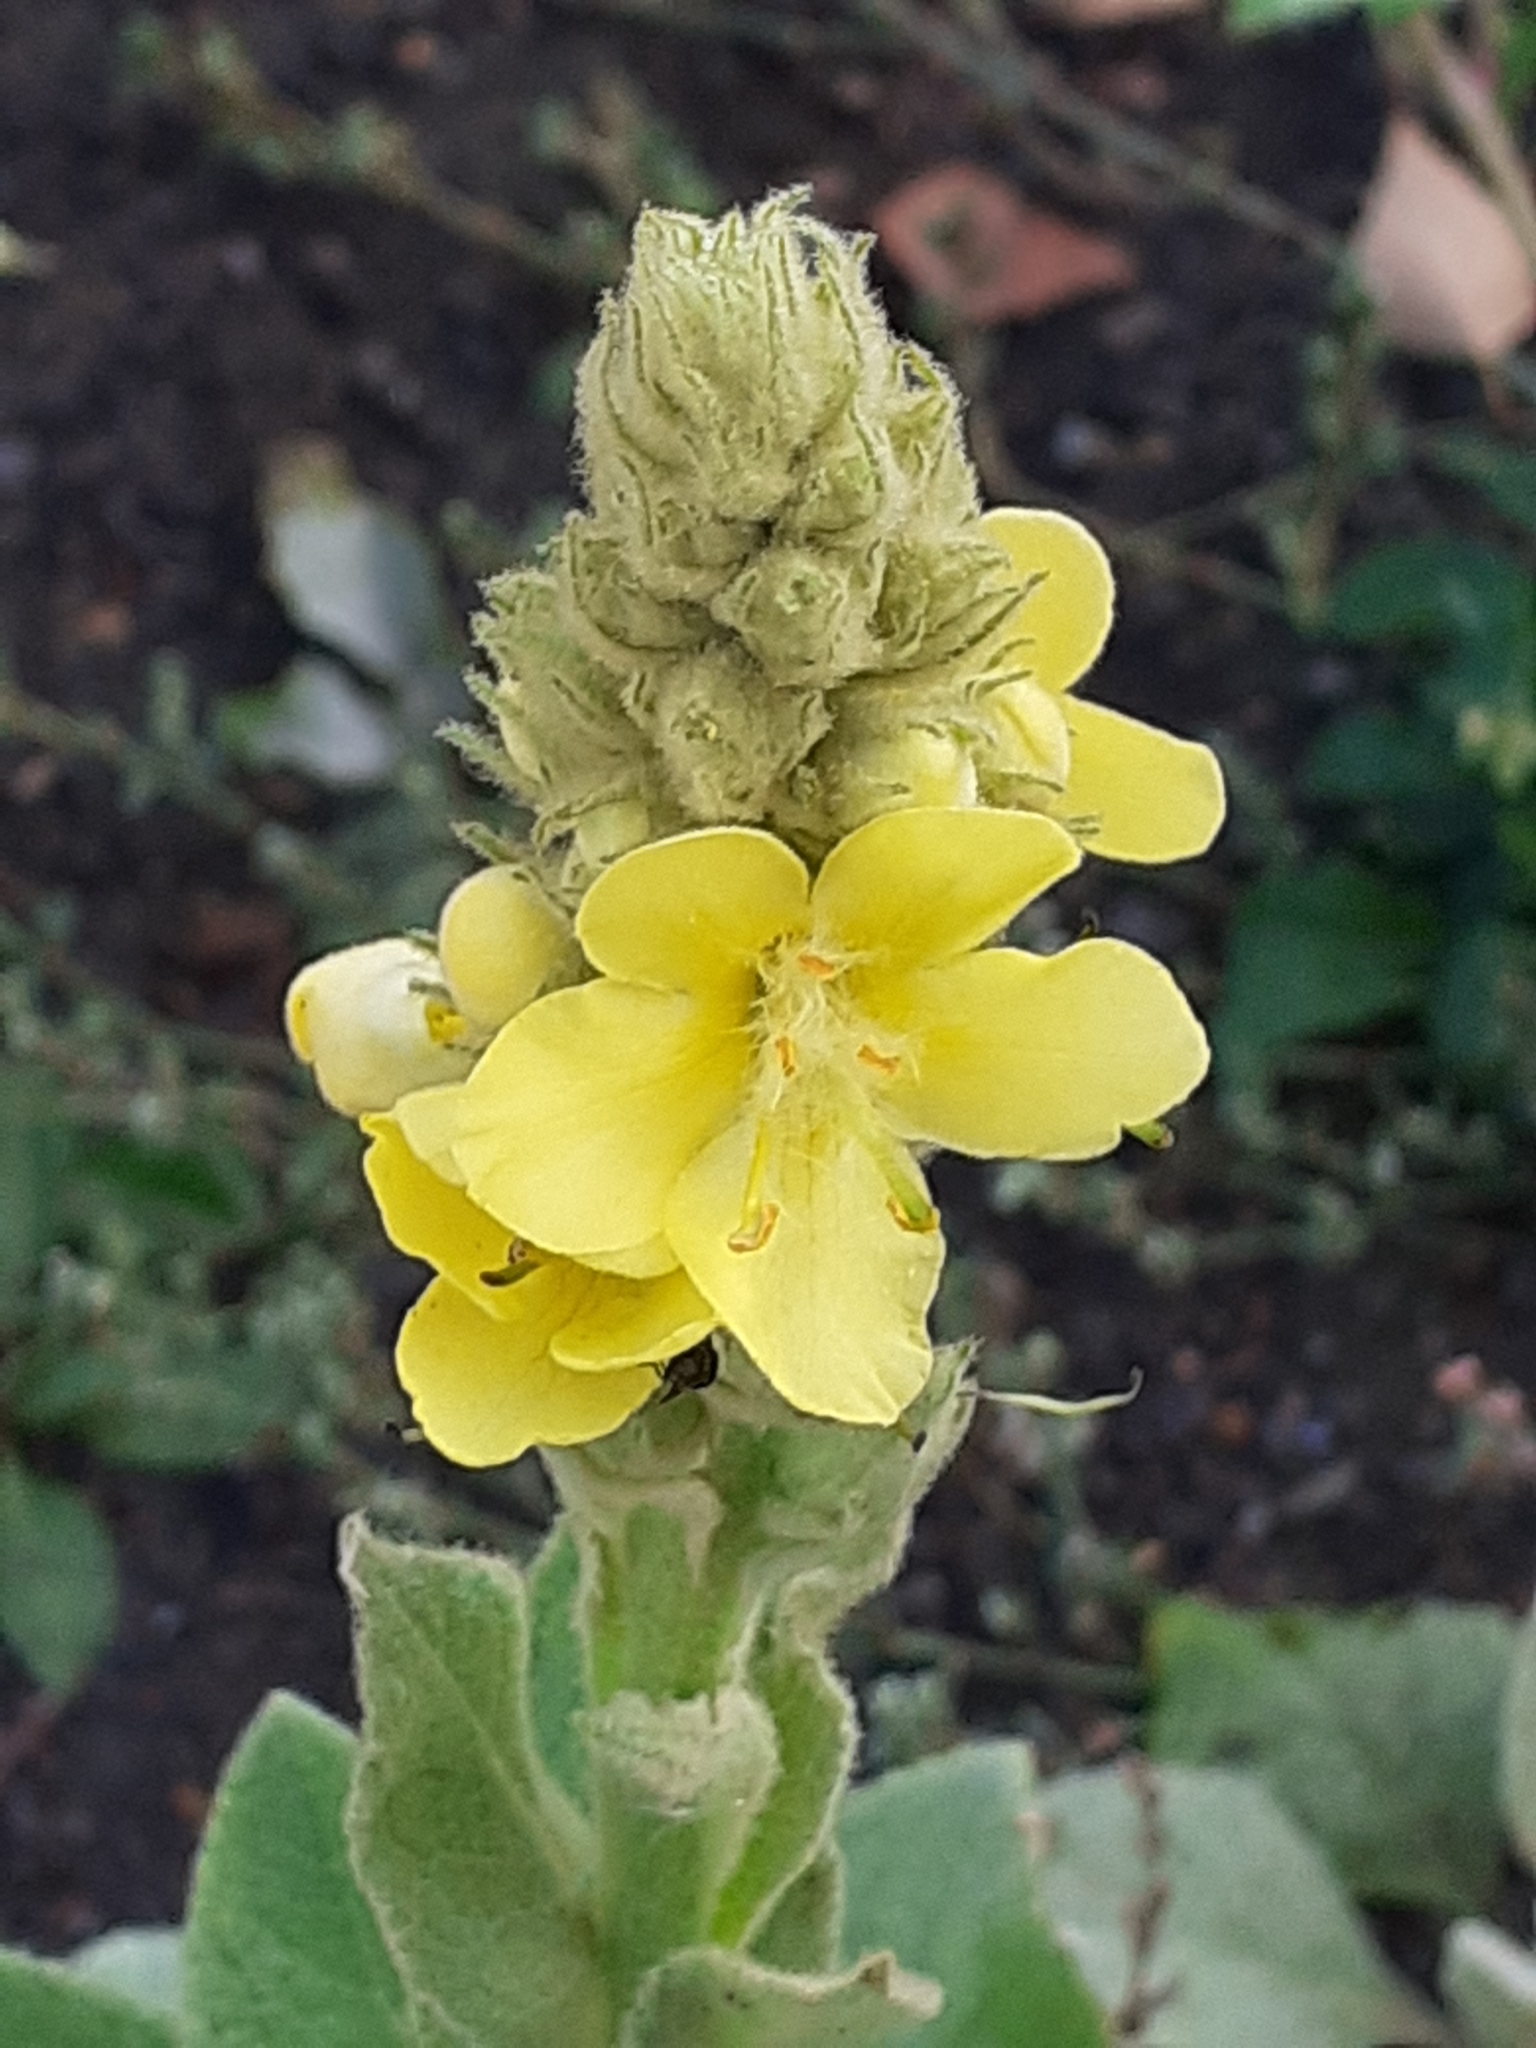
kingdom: Plantae
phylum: Tracheophyta
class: Magnoliopsida
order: Lamiales
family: Scrophulariaceae
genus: Verbascum
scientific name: Verbascum thapsus
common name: Common mullein
